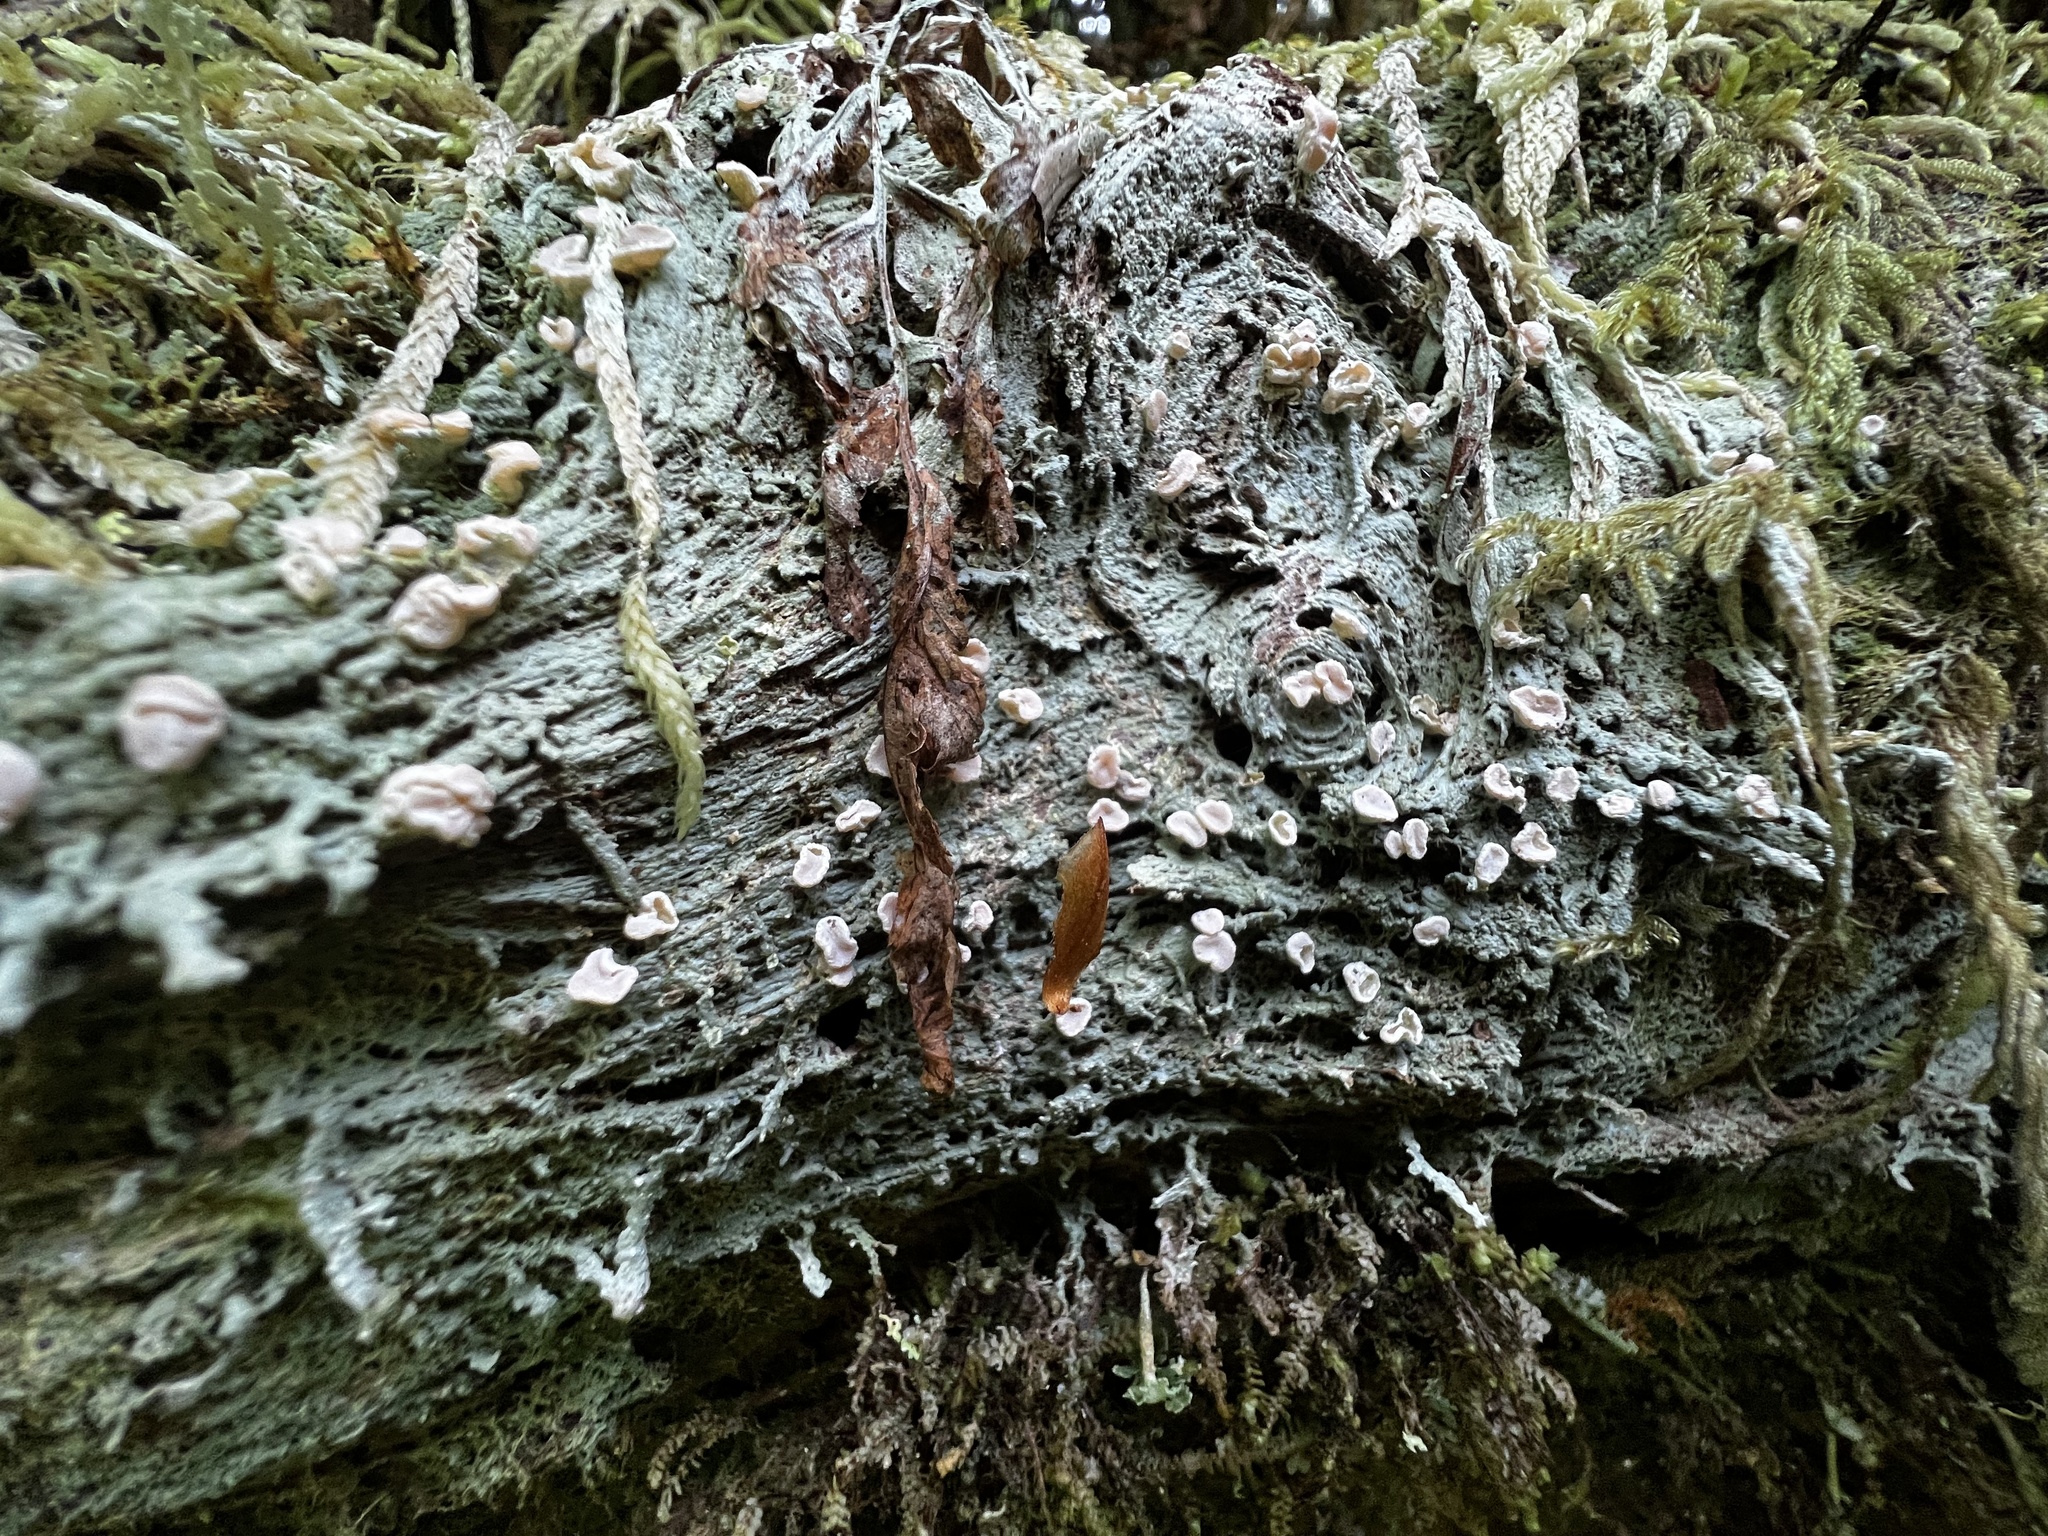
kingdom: Fungi
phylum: Ascomycota
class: Lecanoromycetes
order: Pertusariales
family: Icmadophilaceae
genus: Icmadophila
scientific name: Icmadophila ericetorum
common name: Candy lichen
